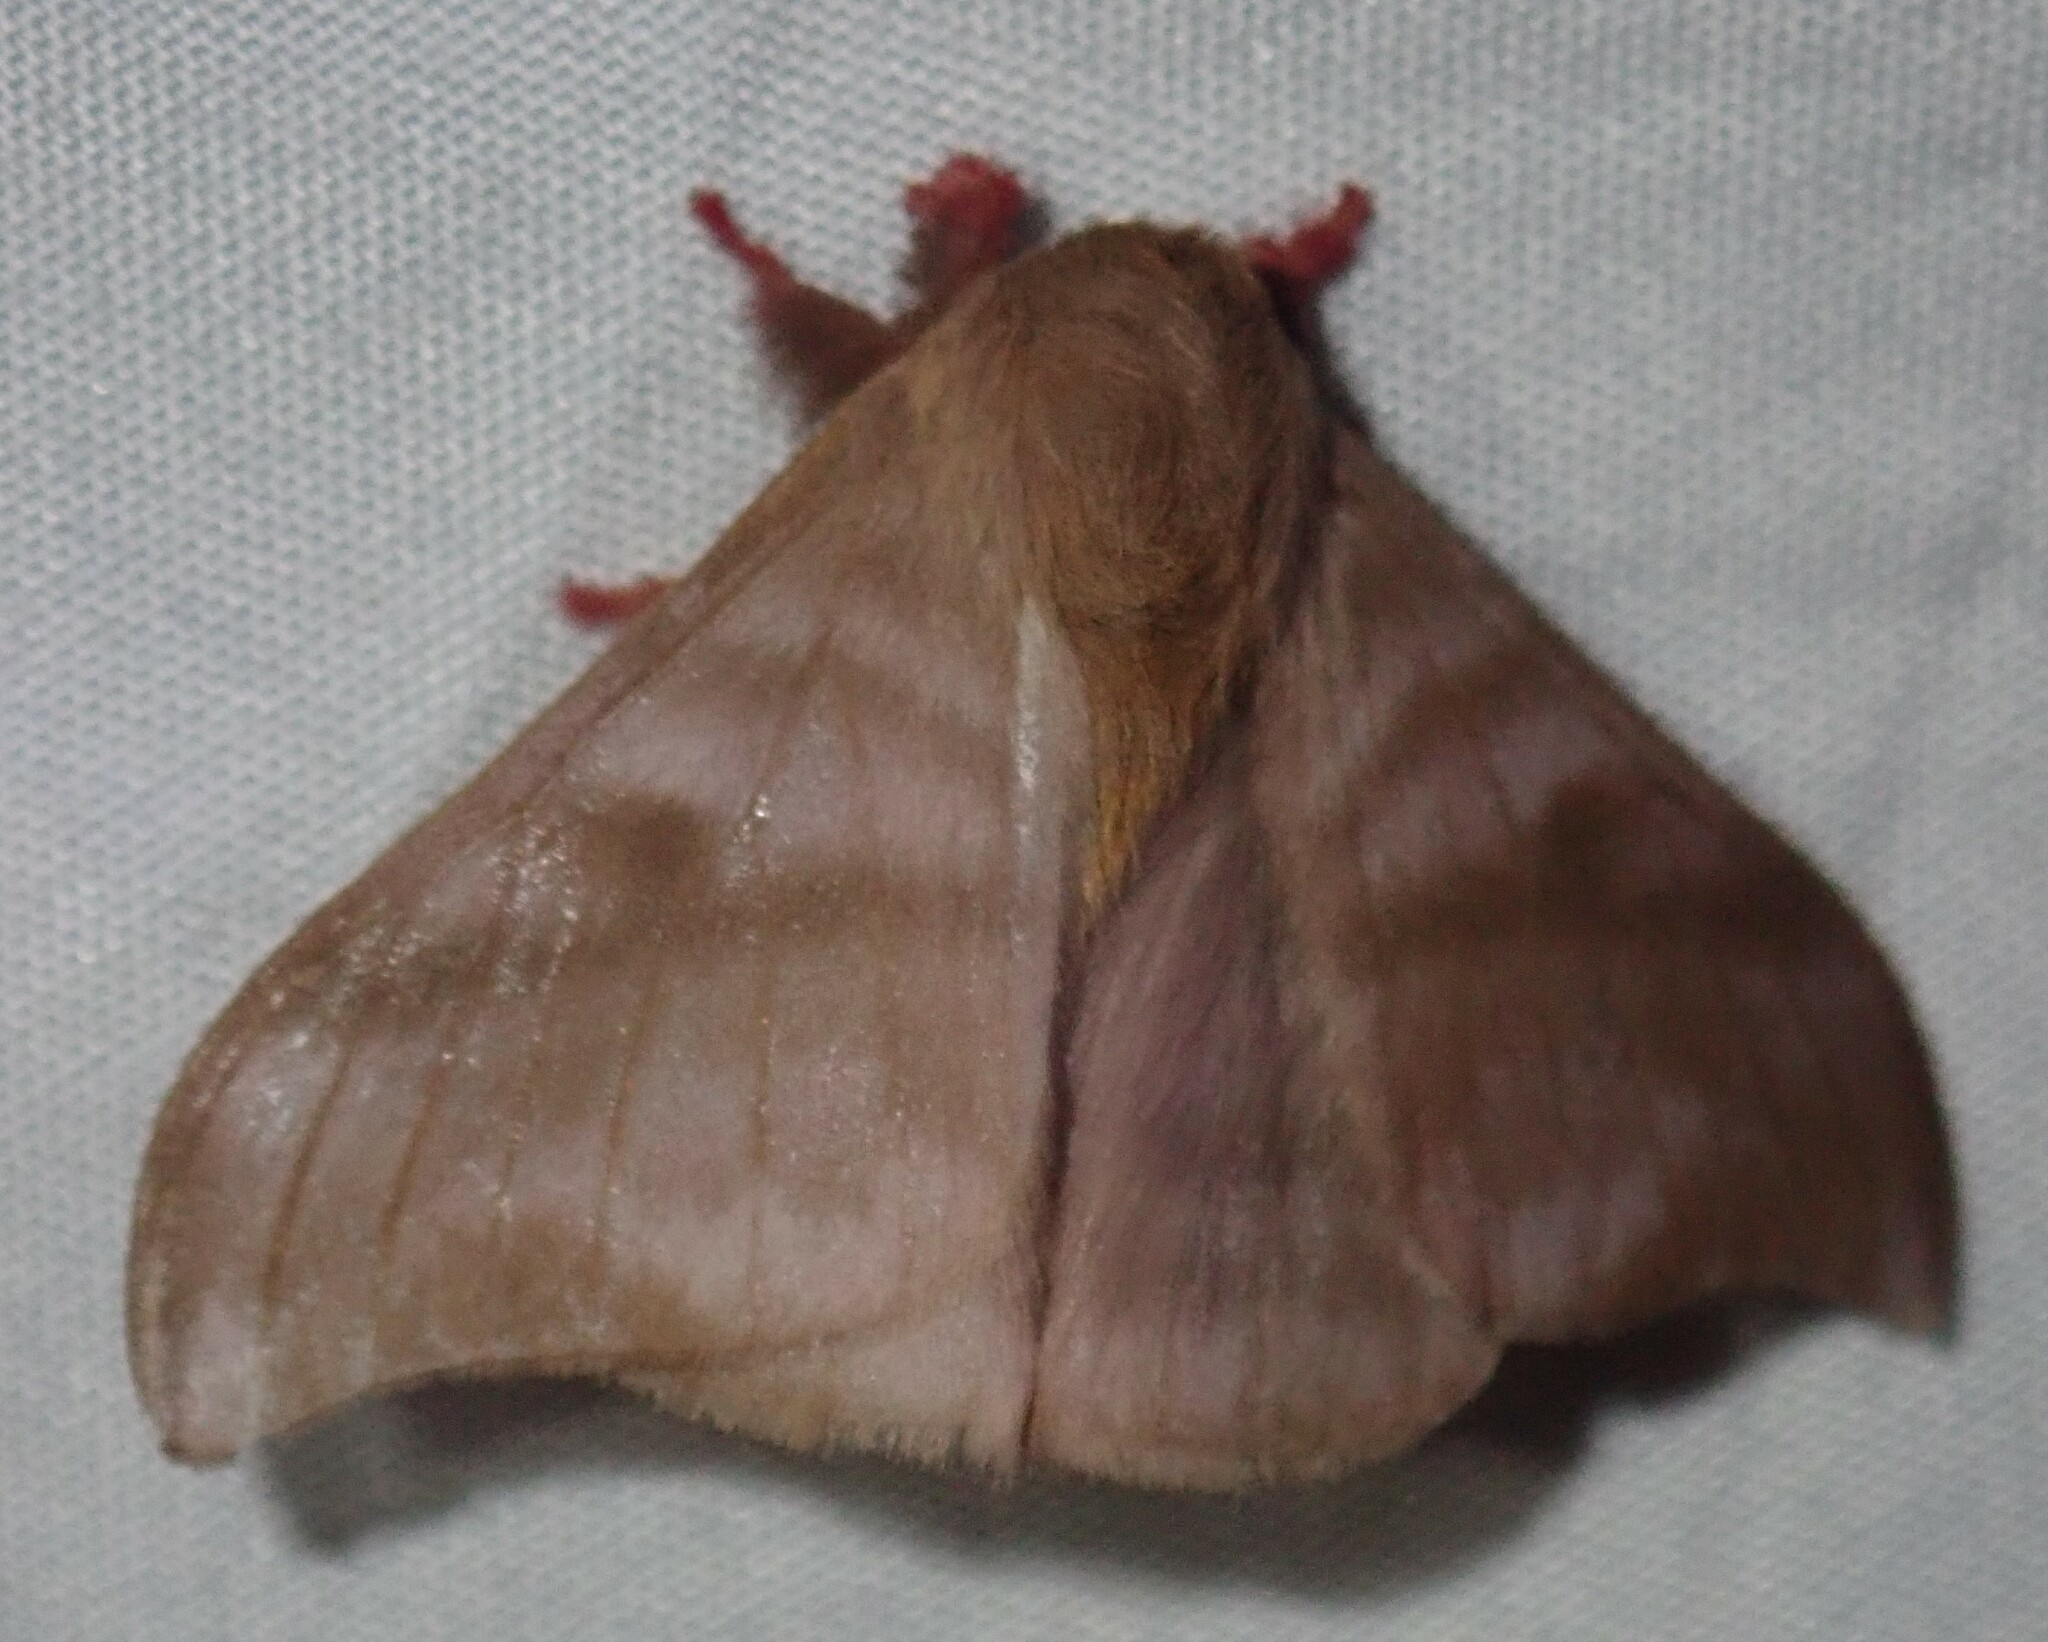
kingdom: Animalia
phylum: Arthropoda
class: Insecta
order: Lepidoptera
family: Saturniidae
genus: Hylesia
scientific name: Hylesia continua
